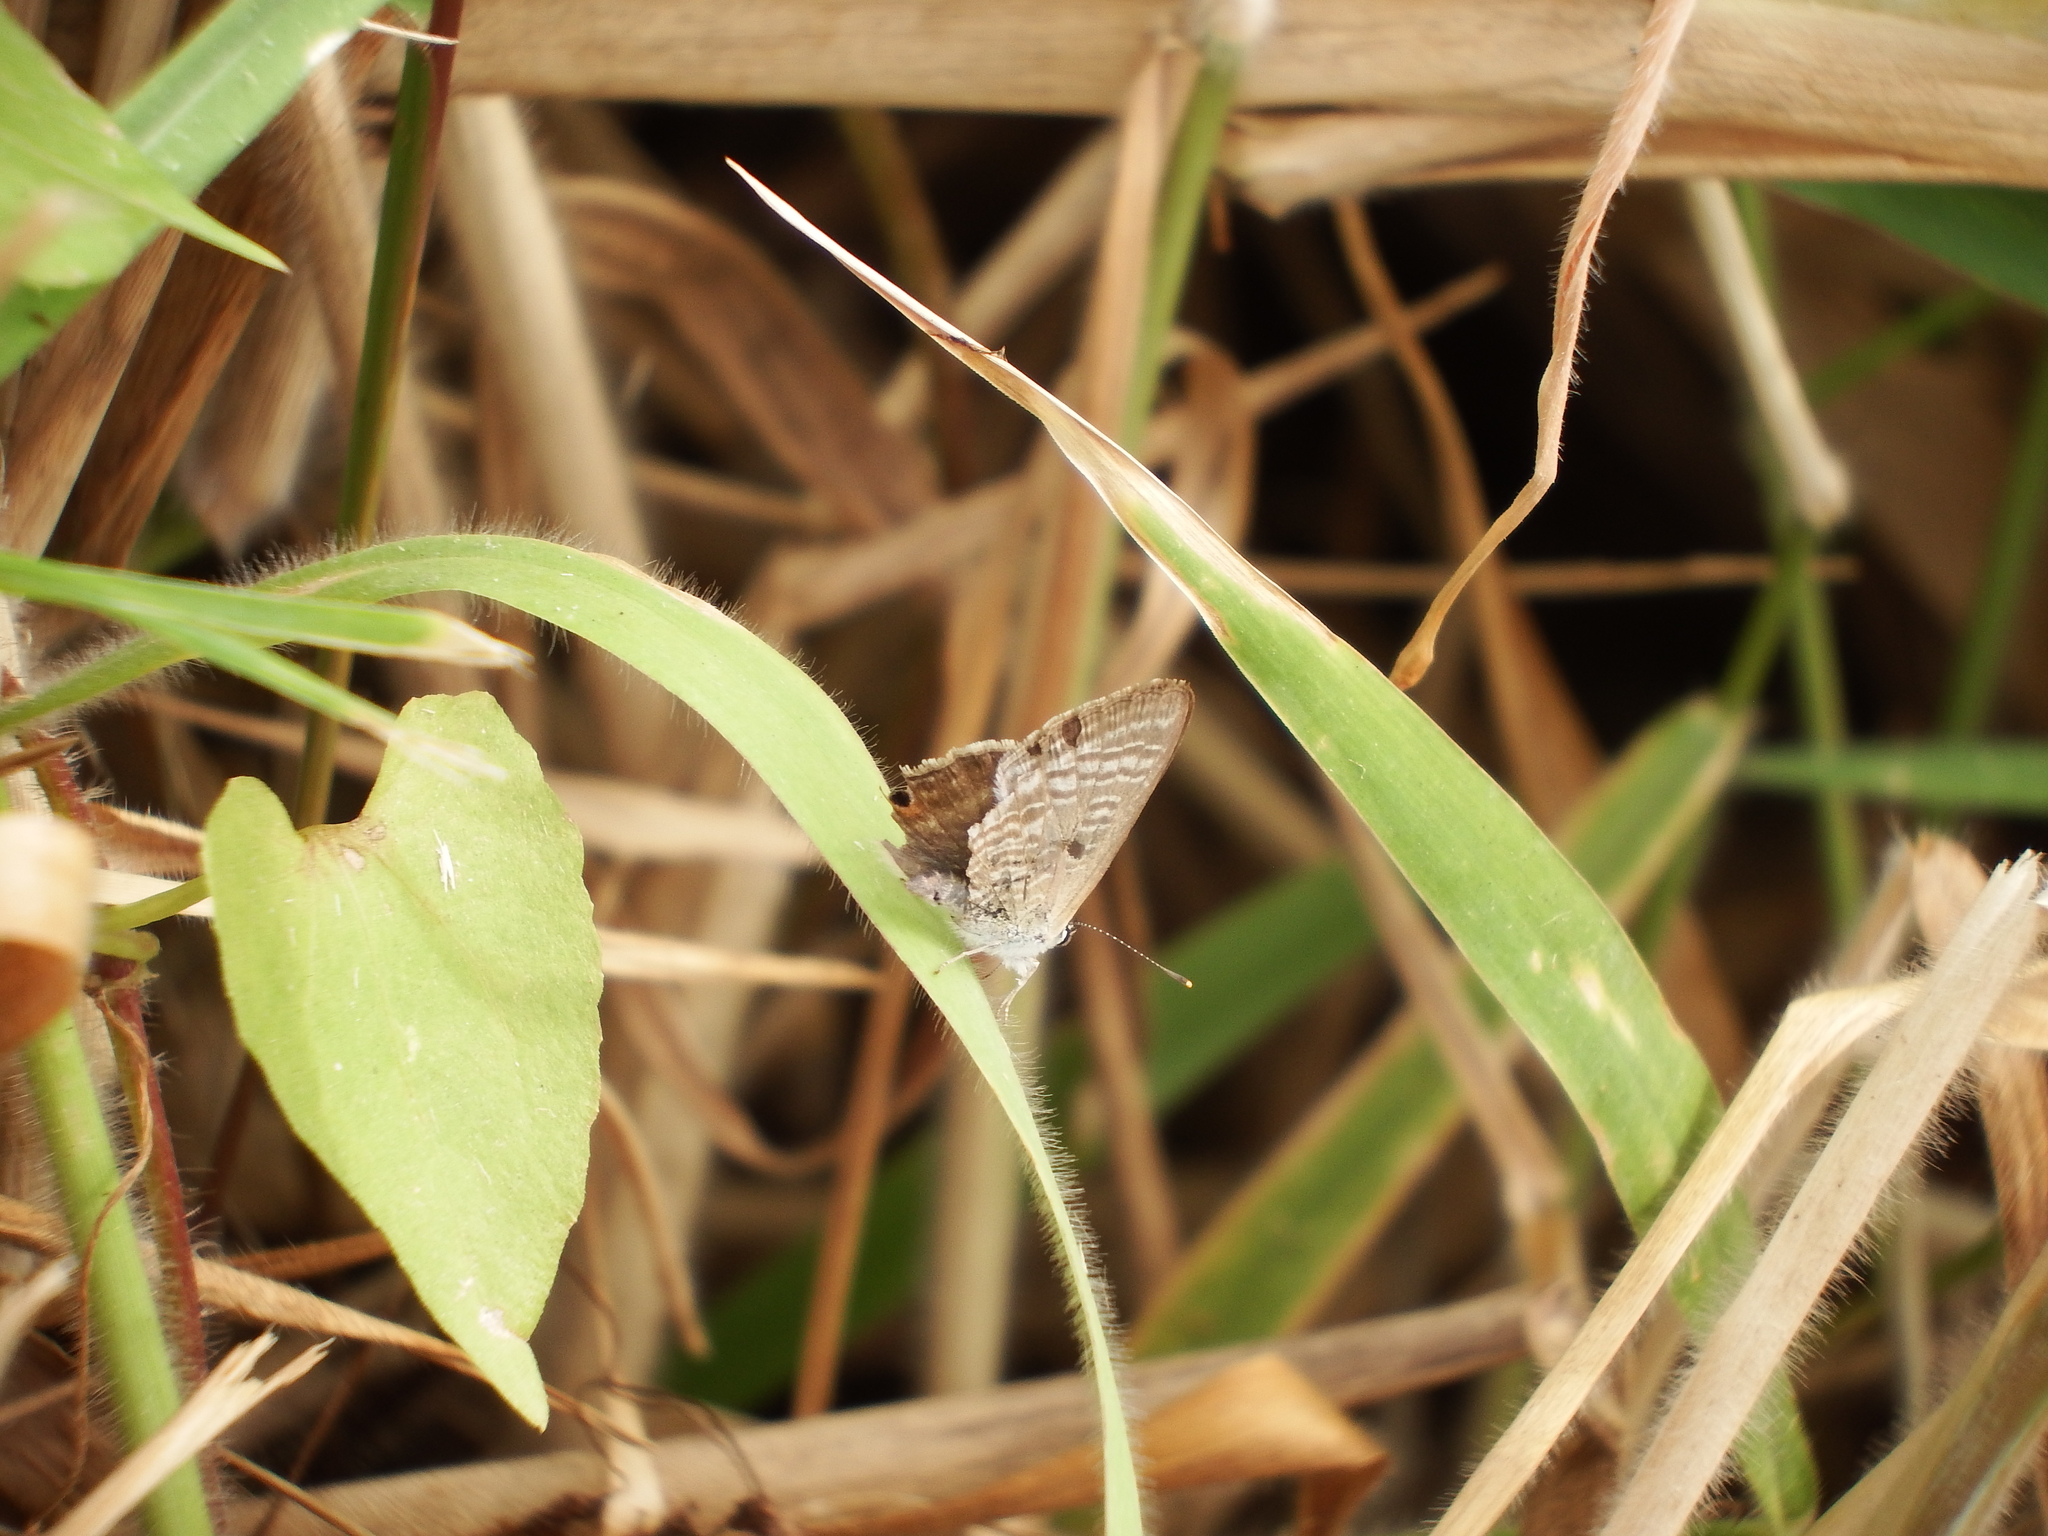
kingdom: Animalia
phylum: Arthropoda
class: Insecta
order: Lepidoptera
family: Lycaenidae
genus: Lampides
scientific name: Lampides boeticus
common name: Long-tailed blue
